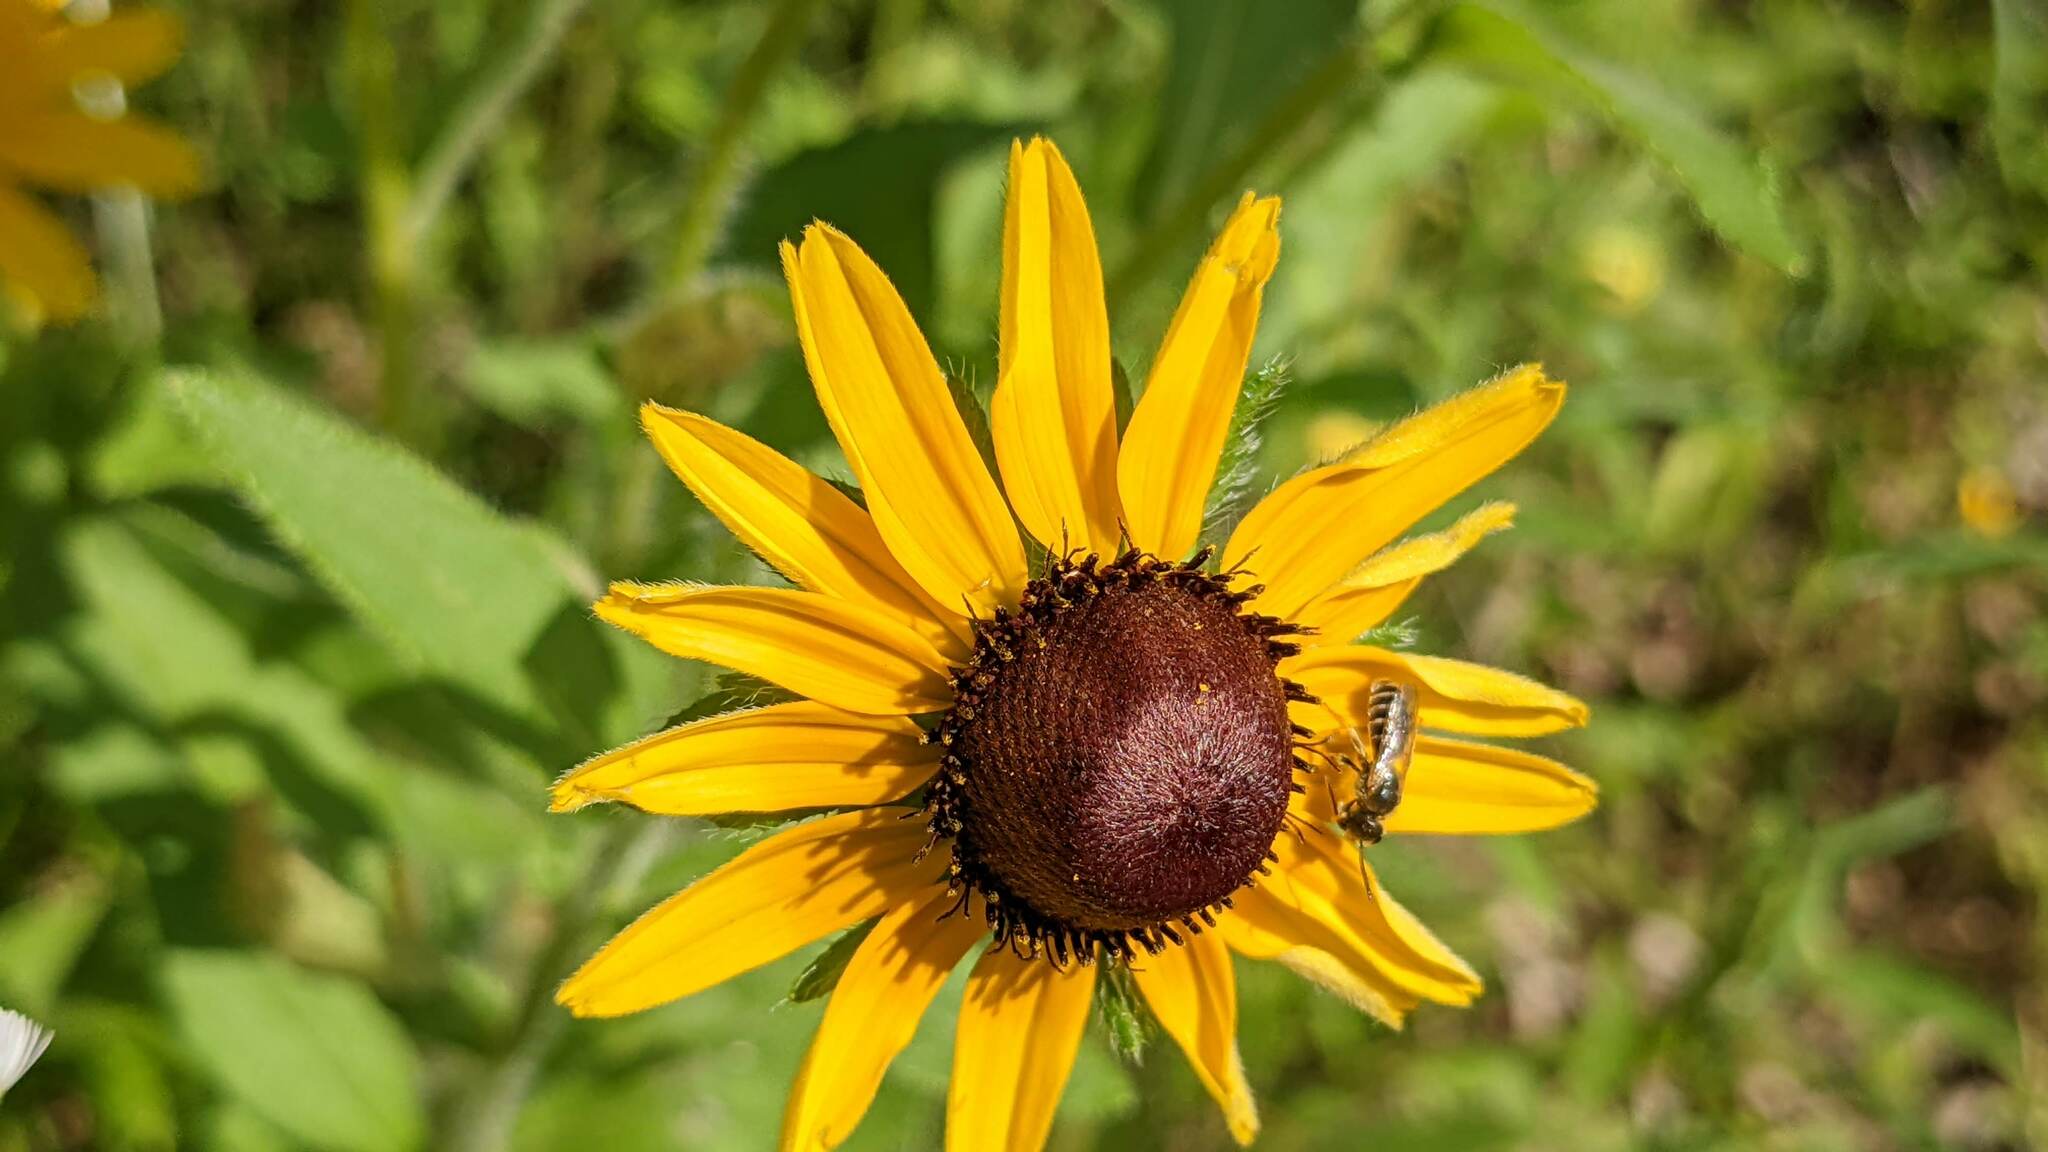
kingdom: Animalia
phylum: Arthropoda
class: Insecta
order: Hymenoptera
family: Halictidae
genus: Halictus
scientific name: Halictus ligatus
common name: Ligated furrow bee
